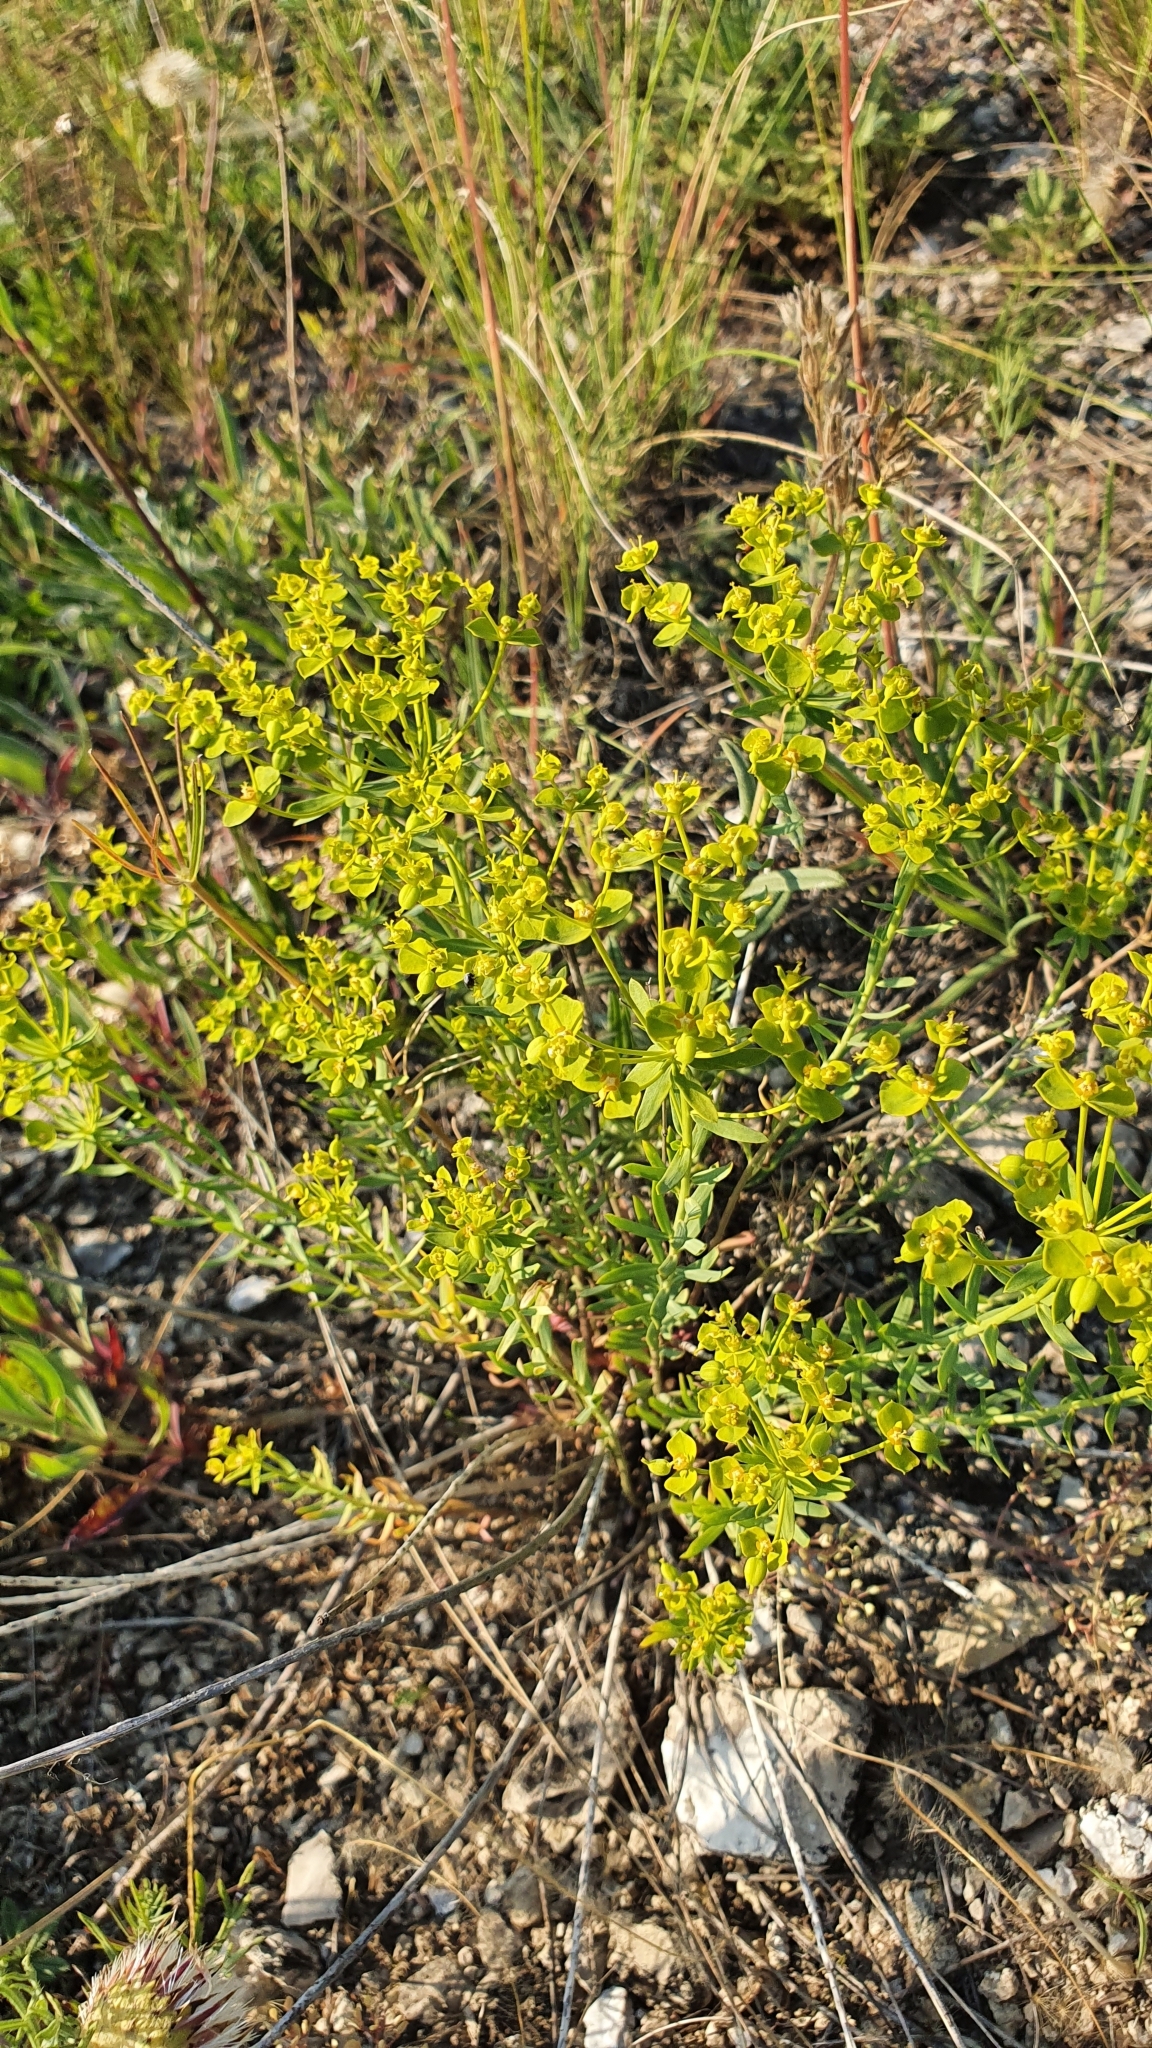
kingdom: Plantae
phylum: Tracheophyta
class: Magnoliopsida
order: Malpighiales
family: Euphorbiaceae
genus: Euphorbia
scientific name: Euphorbia seguieriana
